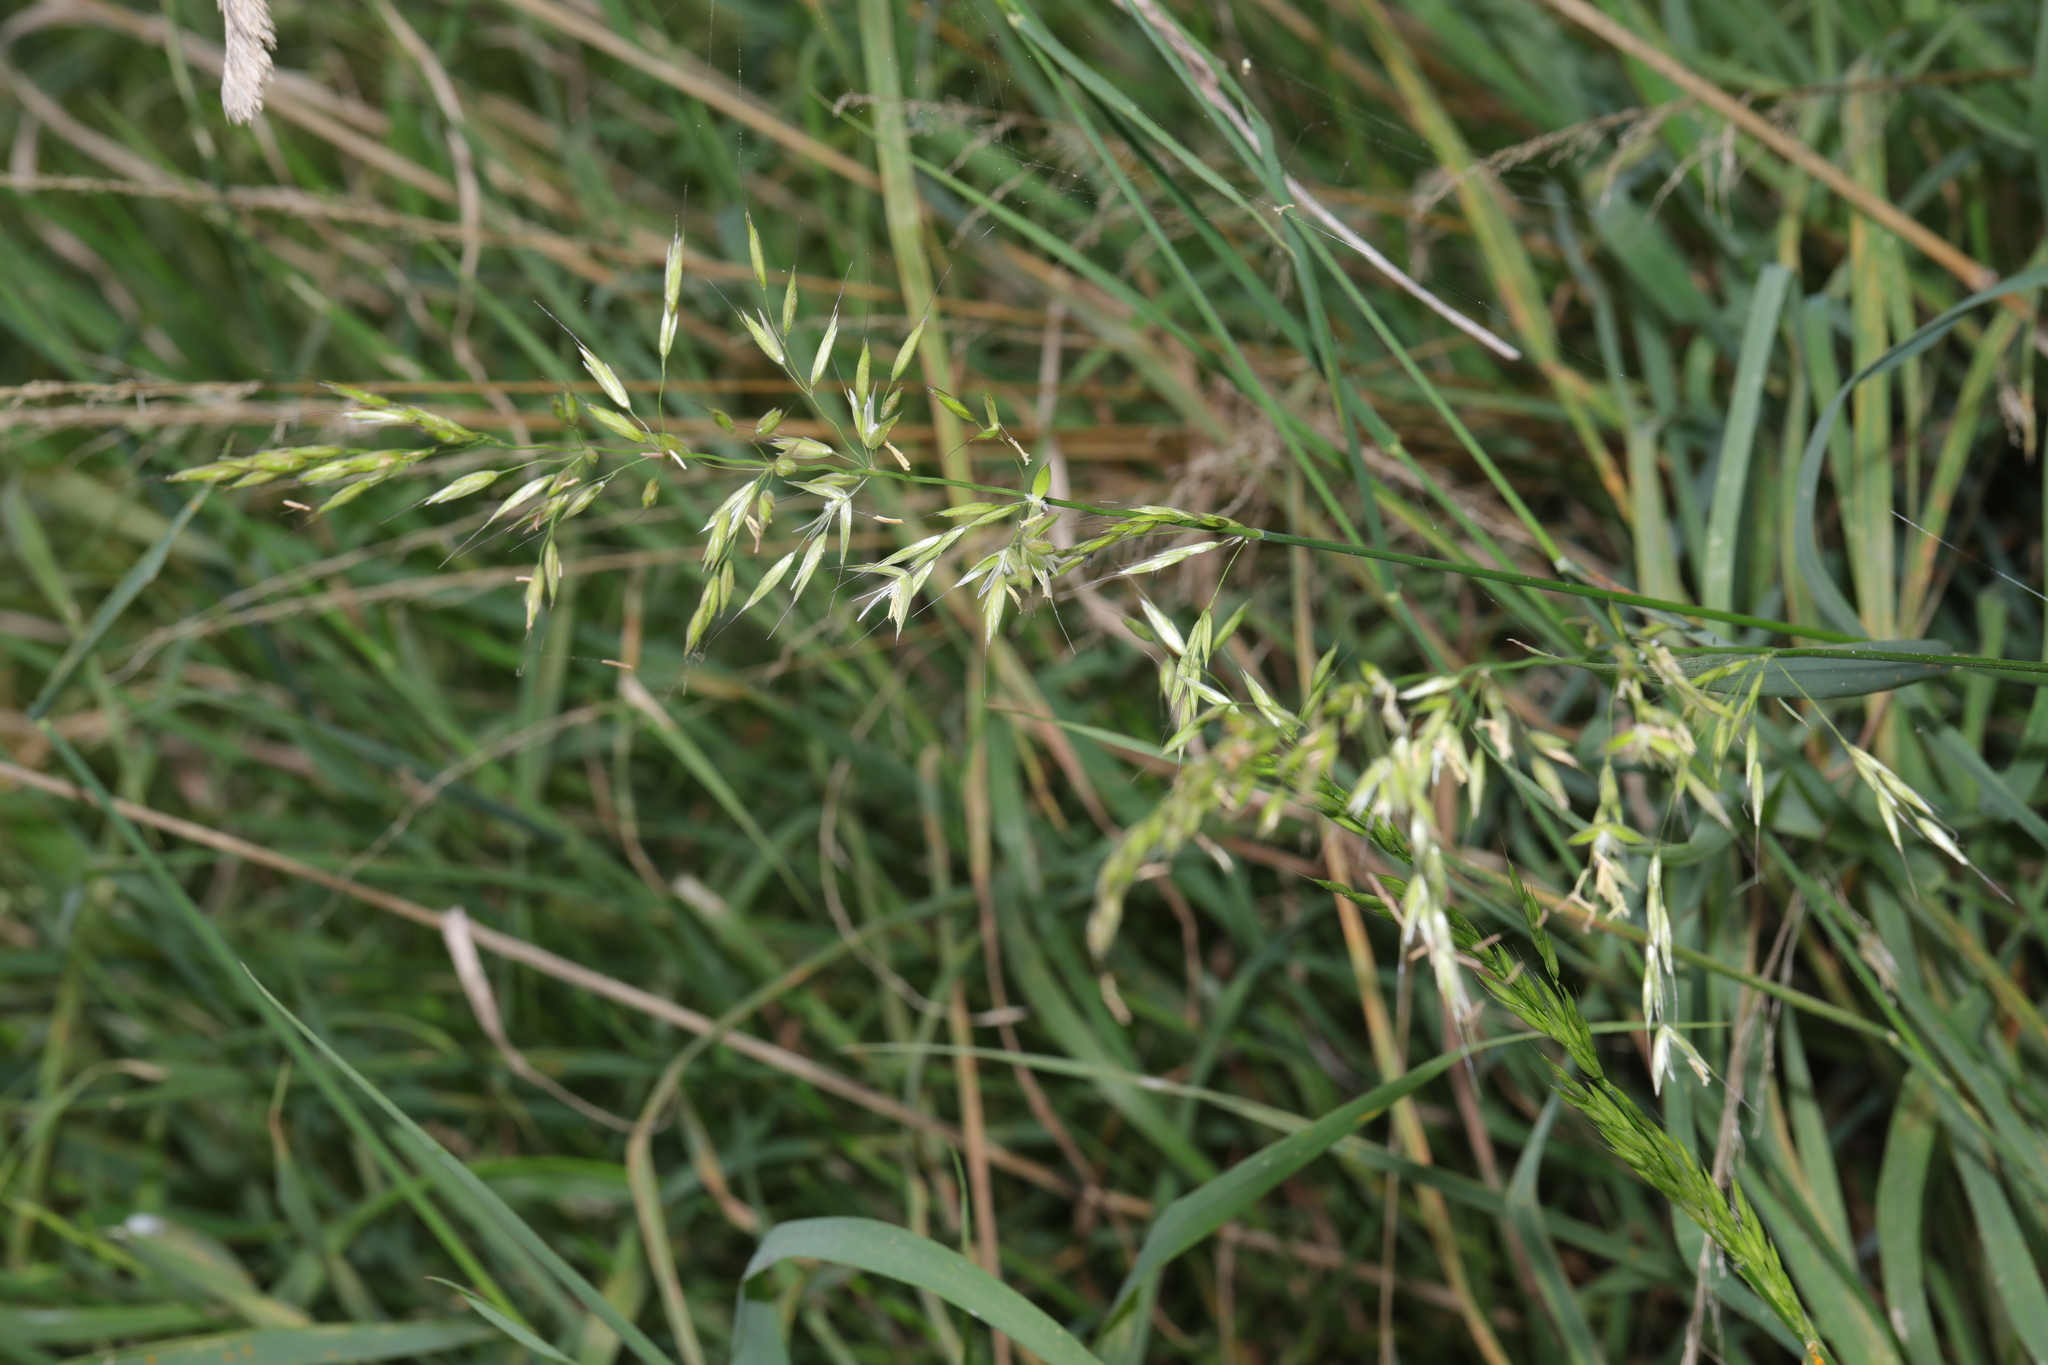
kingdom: Plantae
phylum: Tracheophyta
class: Liliopsida
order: Poales
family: Poaceae
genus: Arrhenatherum
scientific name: Arrhenatherum elatius
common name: Tall oatgrass
